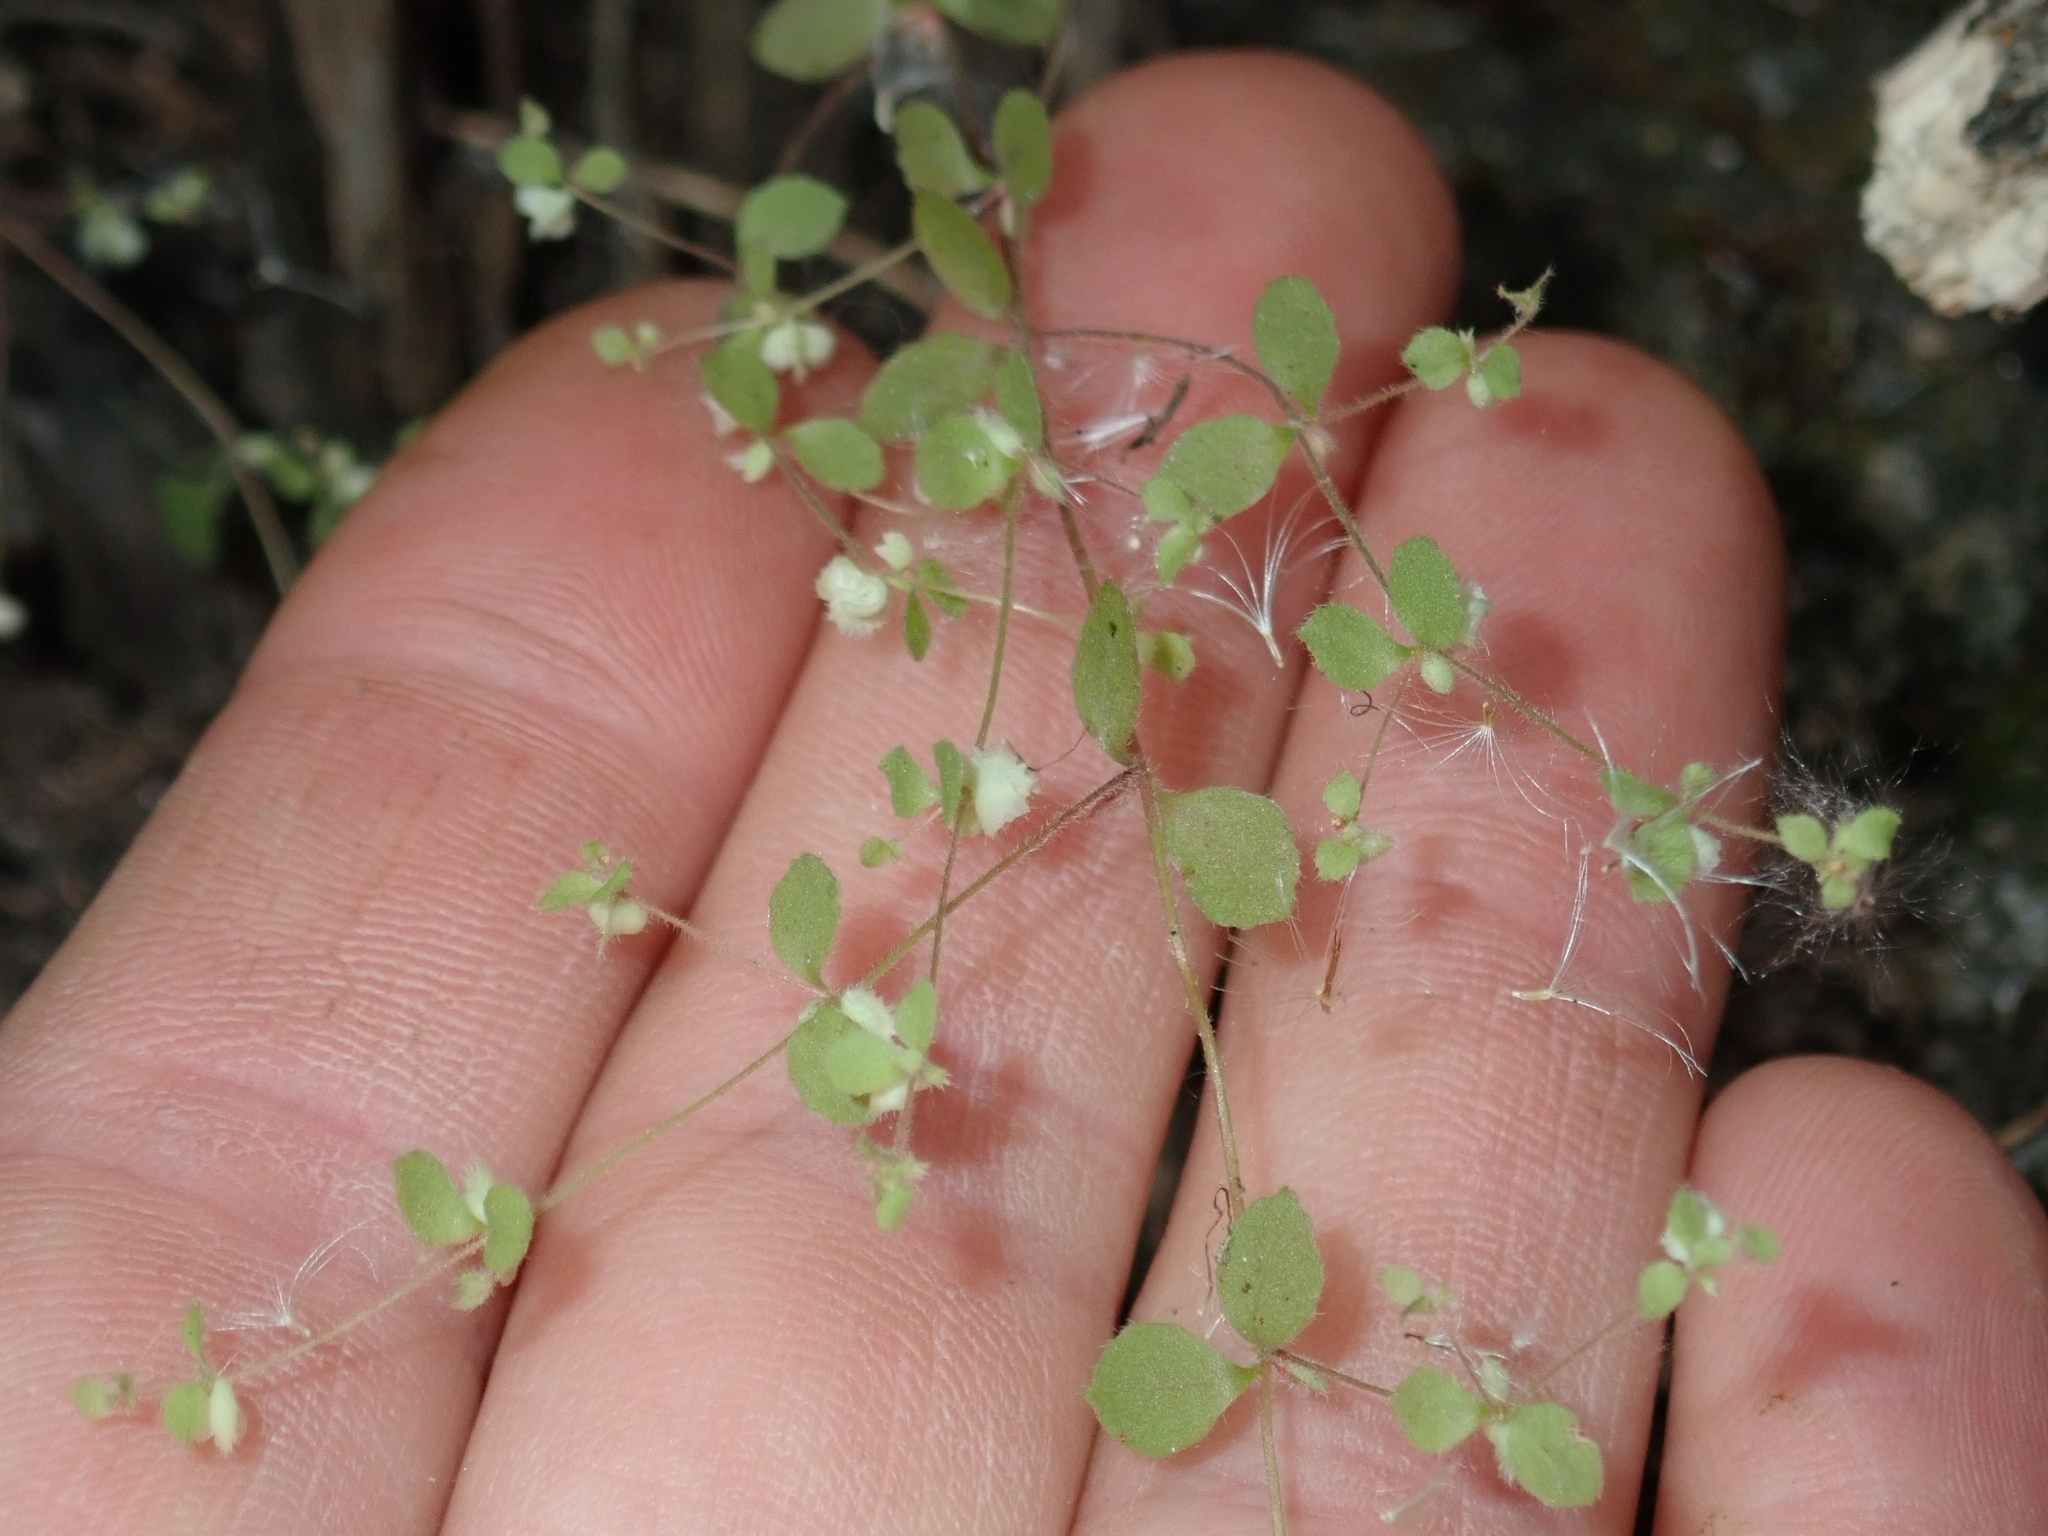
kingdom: Plantae
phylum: Tracheophyta
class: Magnoliopsida
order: Caryophyllales
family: Polygonaceae
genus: Pterostegia
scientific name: Pterostegia drymarioides
